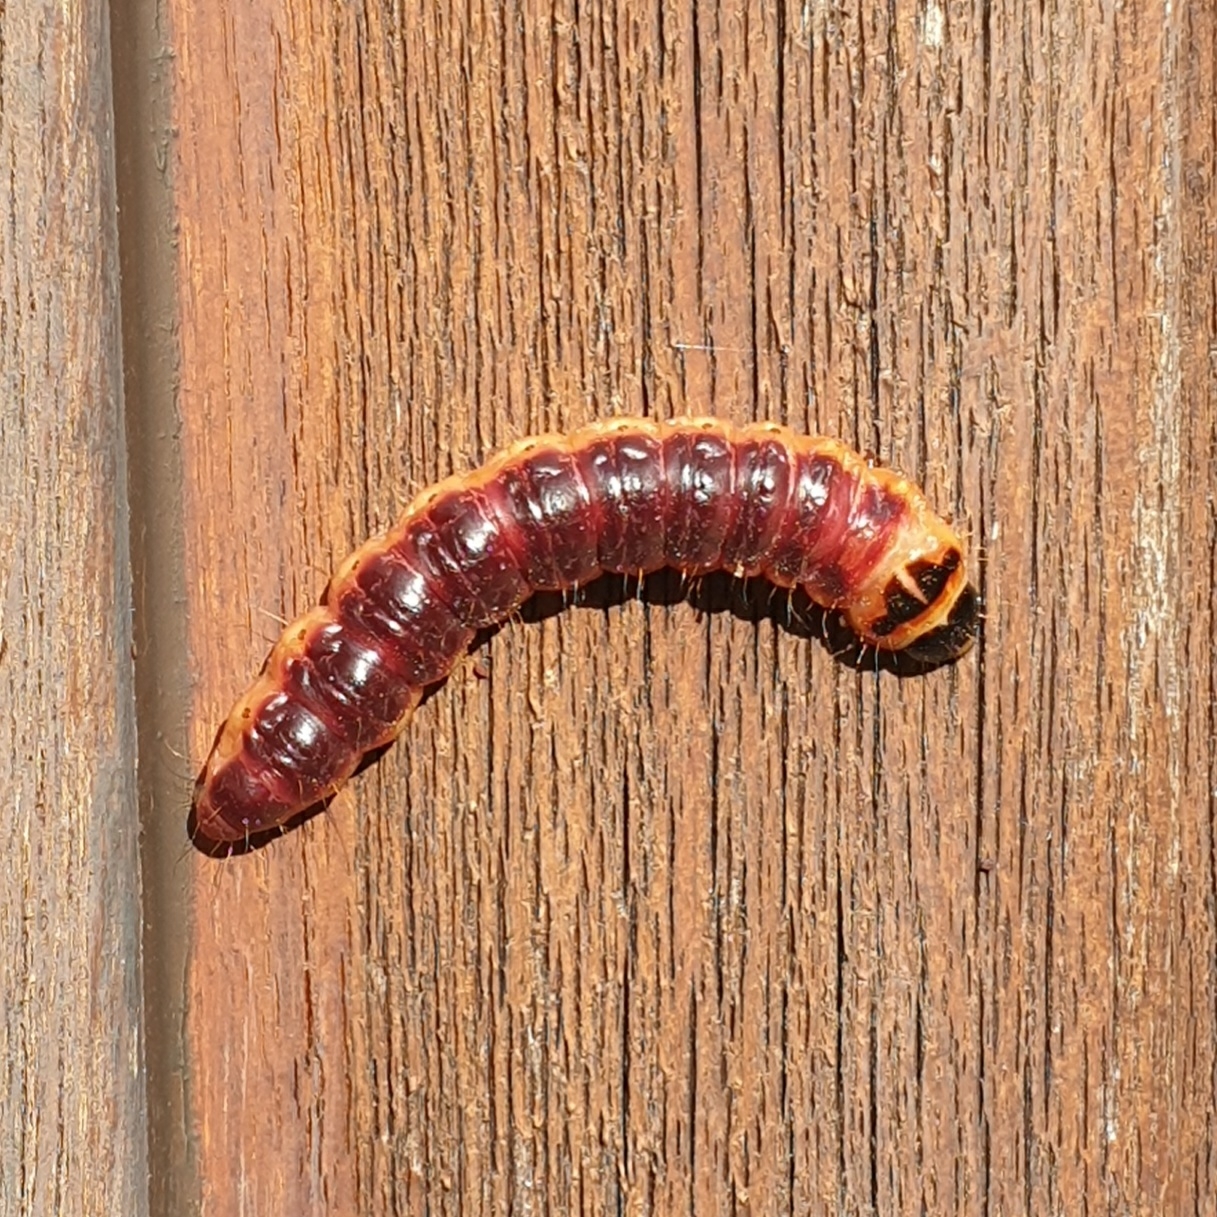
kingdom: Animalia
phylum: Arthropoda
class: Insecta
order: Lepidoptera
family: Cossidae
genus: Cossus
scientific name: Cossus cossus
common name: Goat moth
